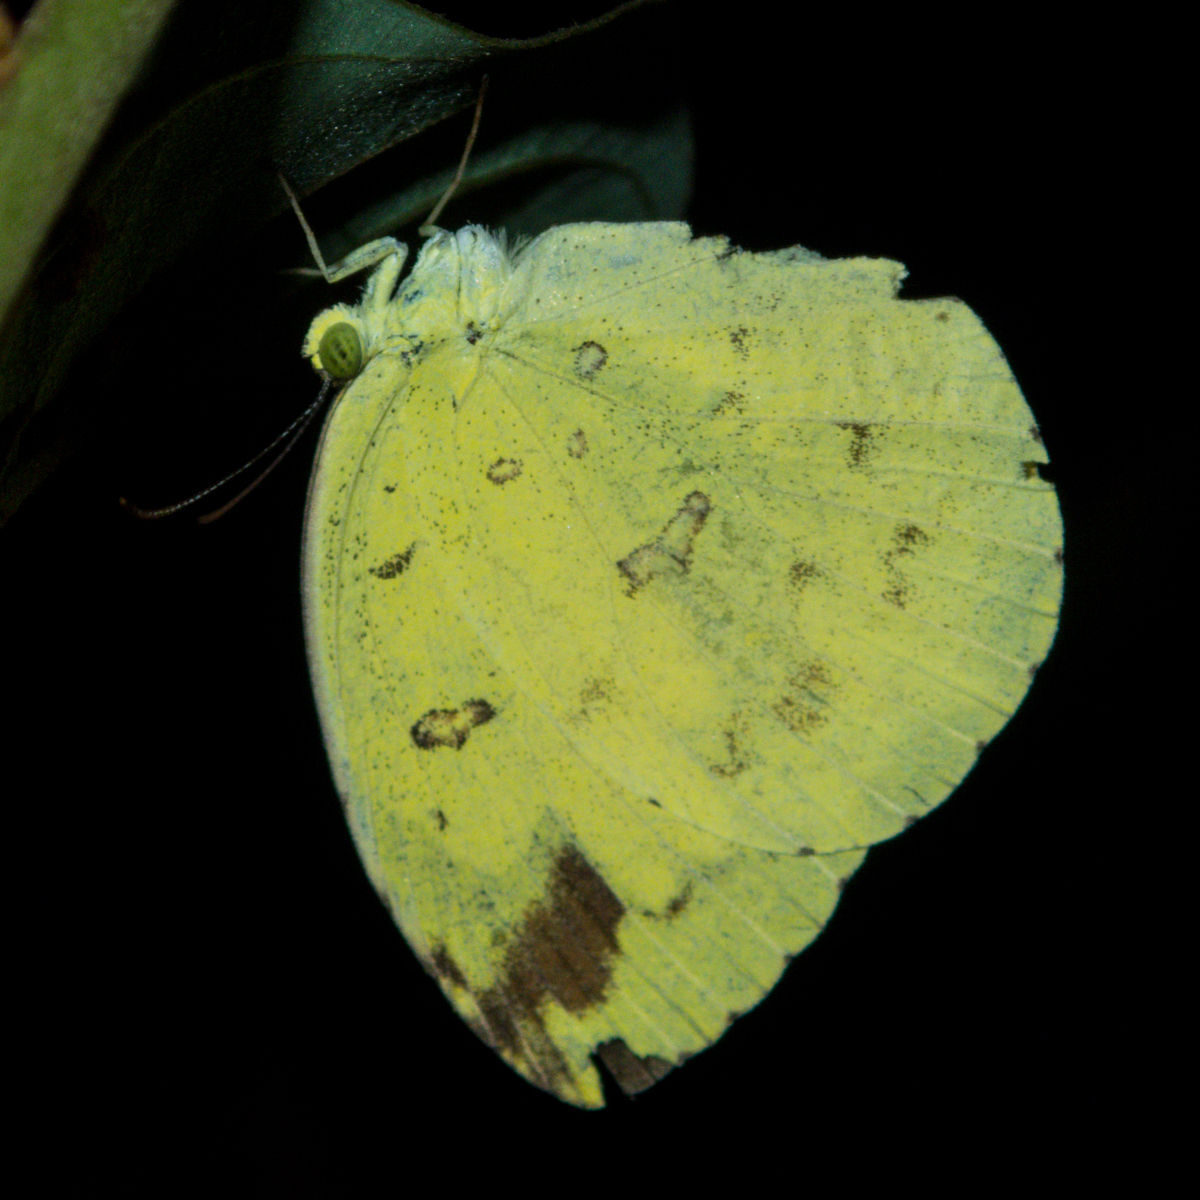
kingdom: Animalia
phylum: Arthropoda
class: Insecta
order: Lepidoptera
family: Pieridae
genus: Eurema
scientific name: Eurema hecabe
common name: Pale grass yellow
